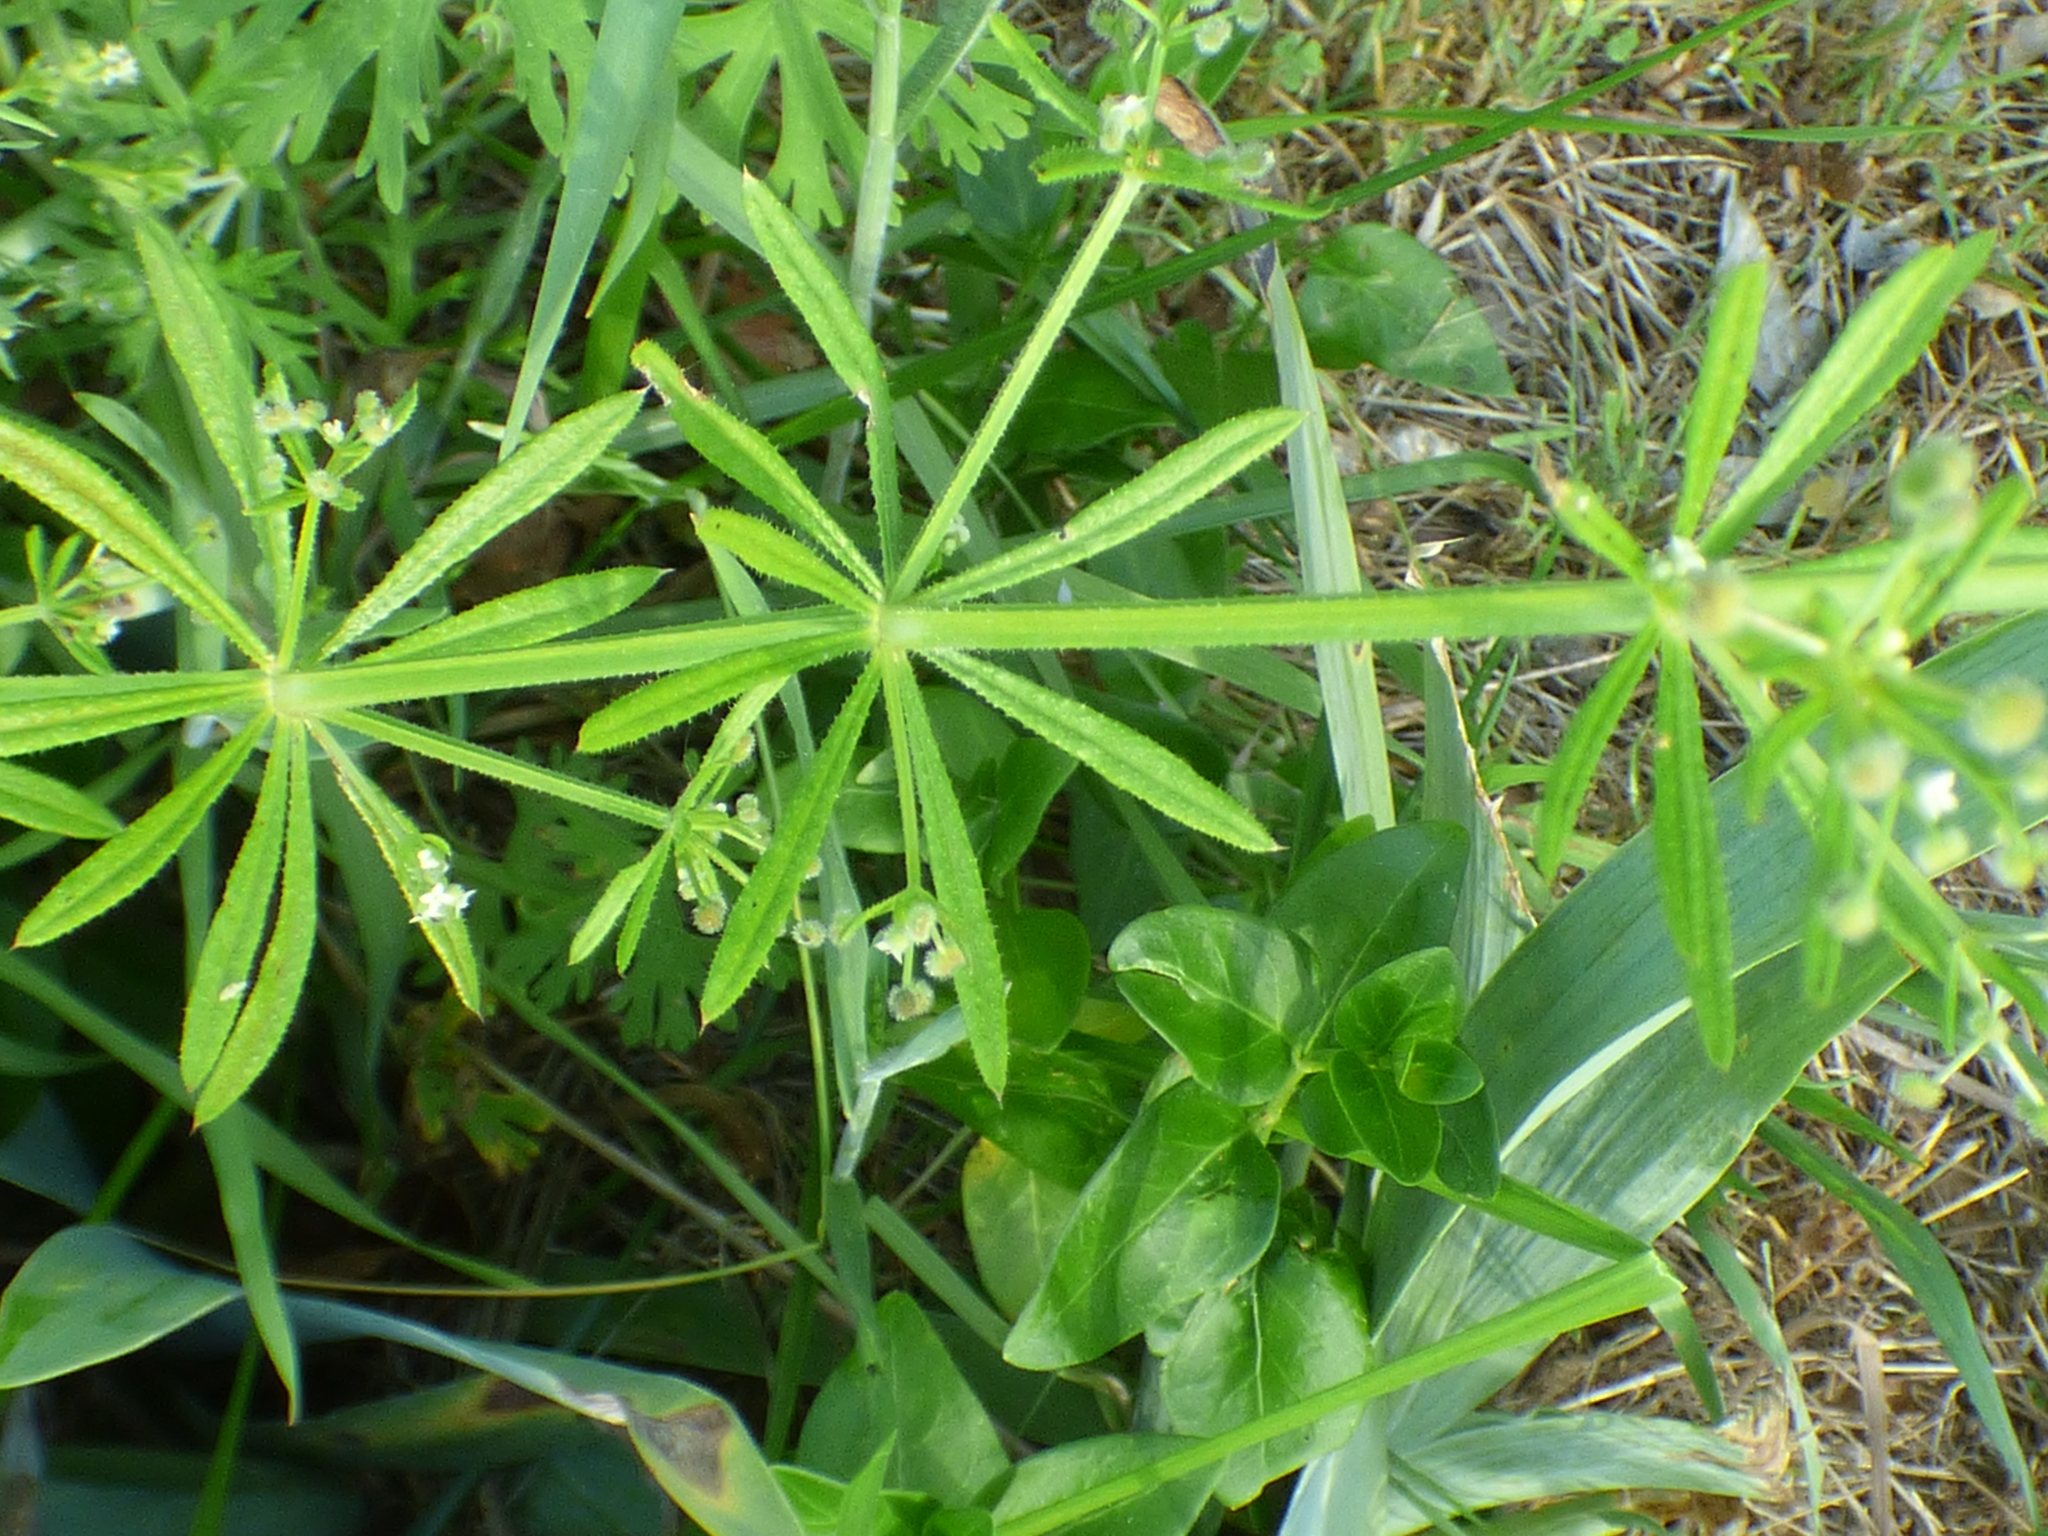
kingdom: Plantae
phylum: Tracheophyta
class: Magnoliopsida
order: Gentianales
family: Rubiaceae
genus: Galium
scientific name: Galium aparine
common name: Cleavers
